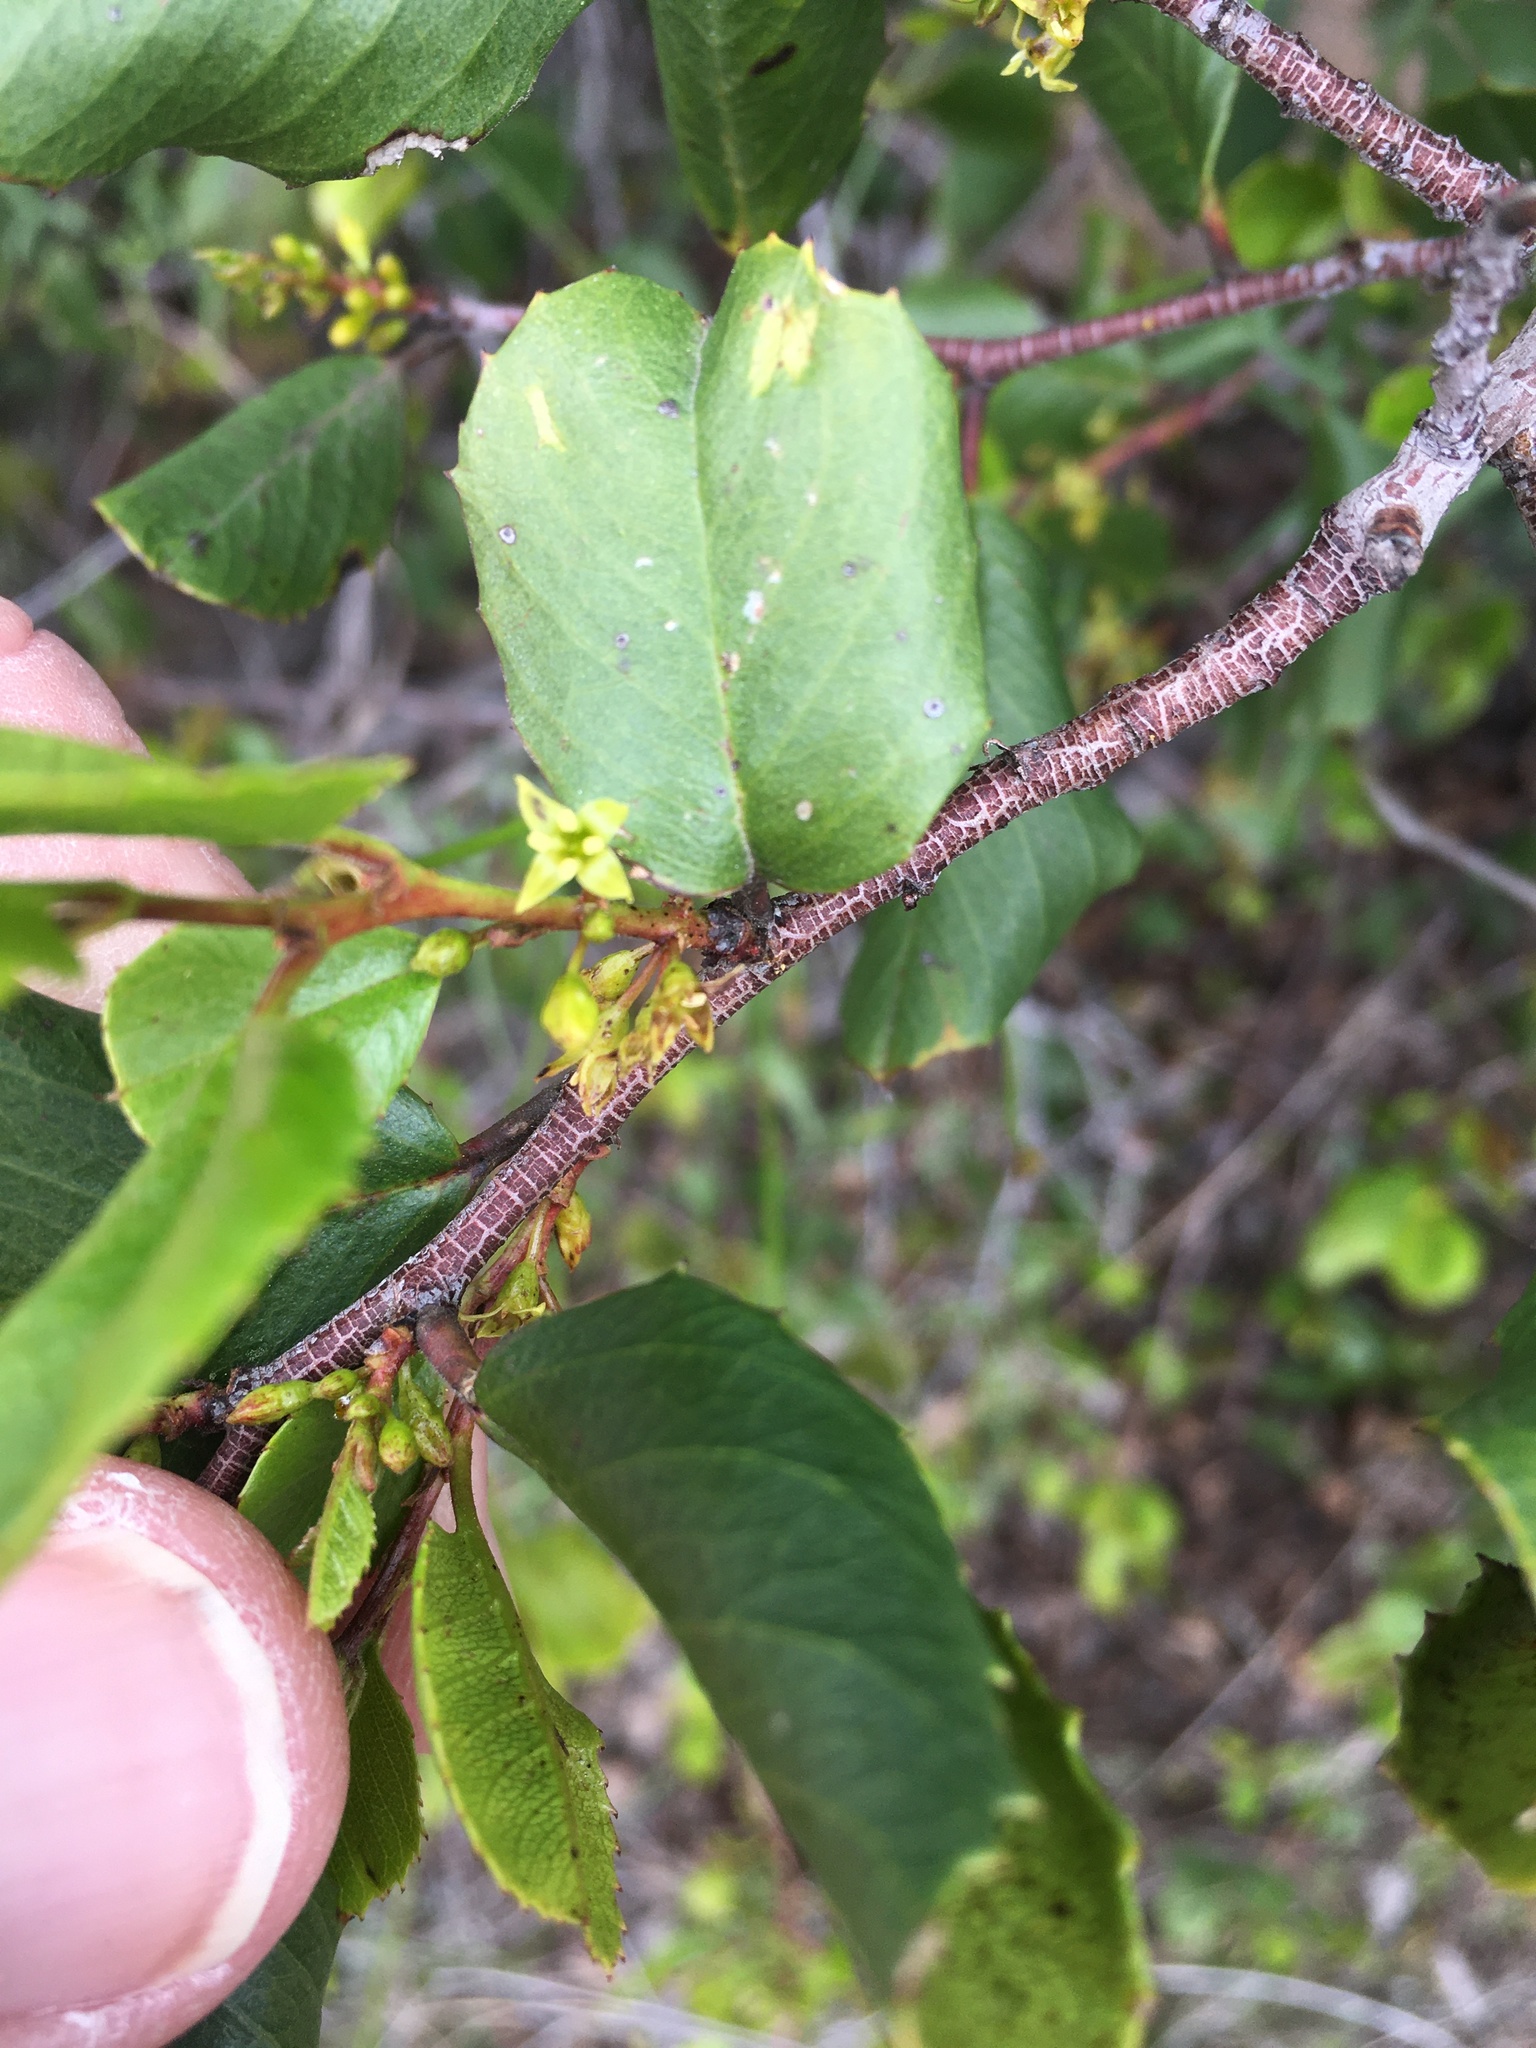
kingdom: Plantae
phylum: Tracheophyta
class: Magnoliopsida
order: Rosales
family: Rhamnaceae
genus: Endotropis
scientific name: Endotropis crocea
